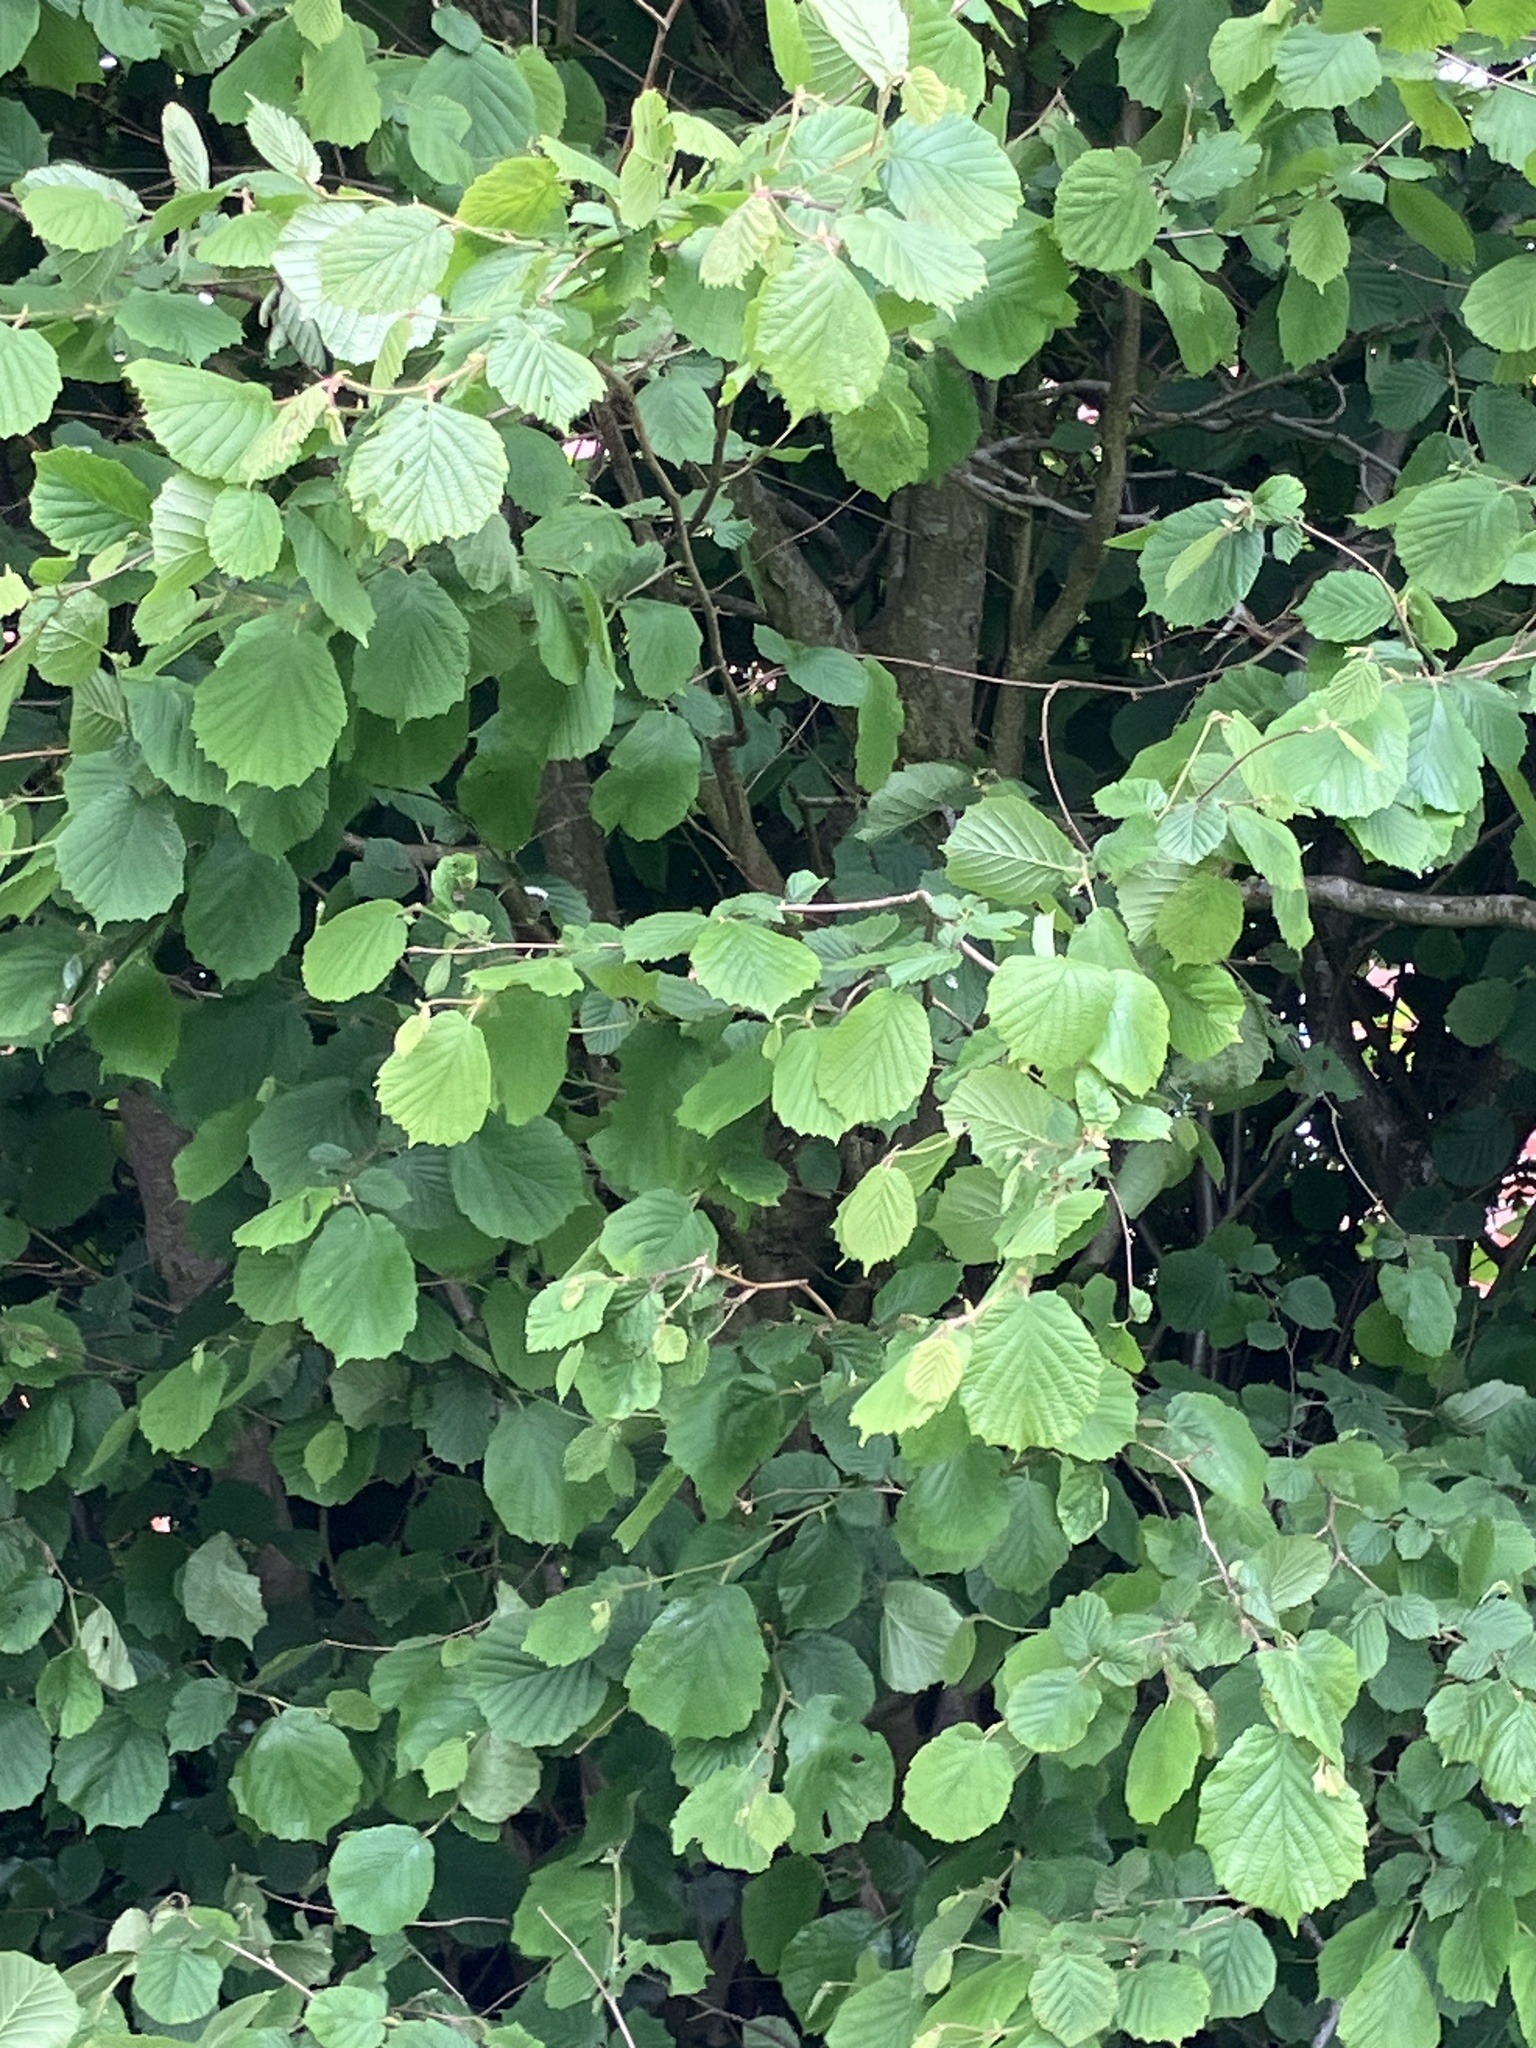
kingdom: Plantae
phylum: Tracheophyta
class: Magnoliopsida
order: Fagales
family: Betulaceae
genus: Corylus
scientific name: Corylus avellana
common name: European hazel
